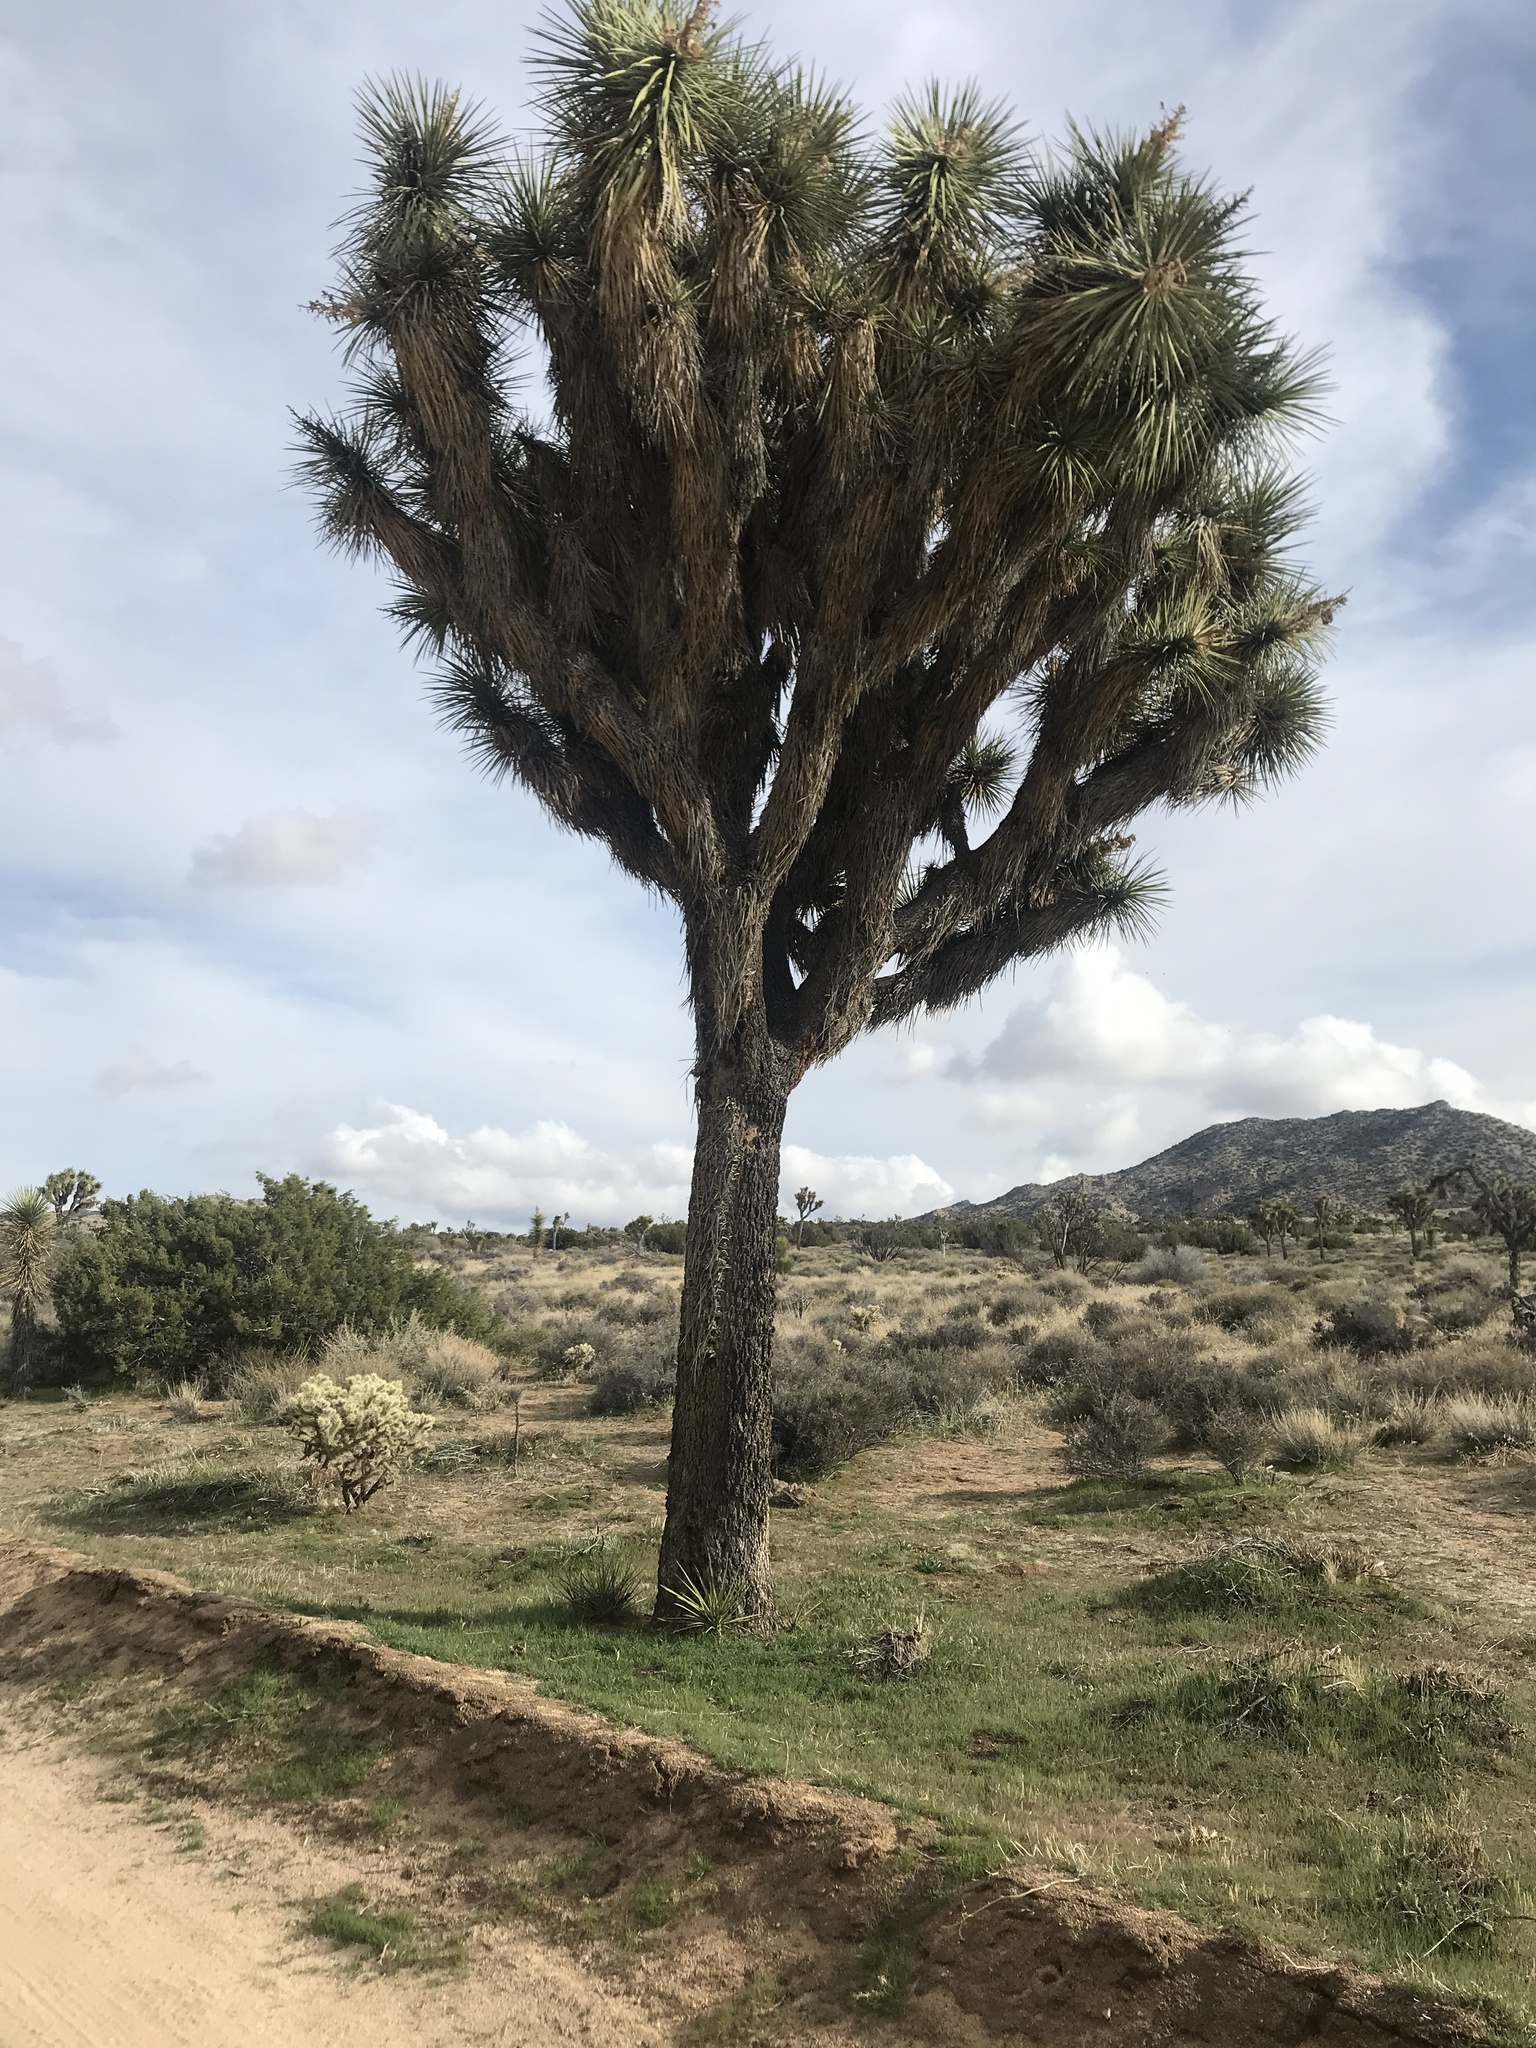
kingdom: Plantae
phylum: Tracheophyta
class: Liliopsida
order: Asparagales
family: Asparagaceae
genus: Yucca
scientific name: Yucca brevifolia
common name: Joshua tree
